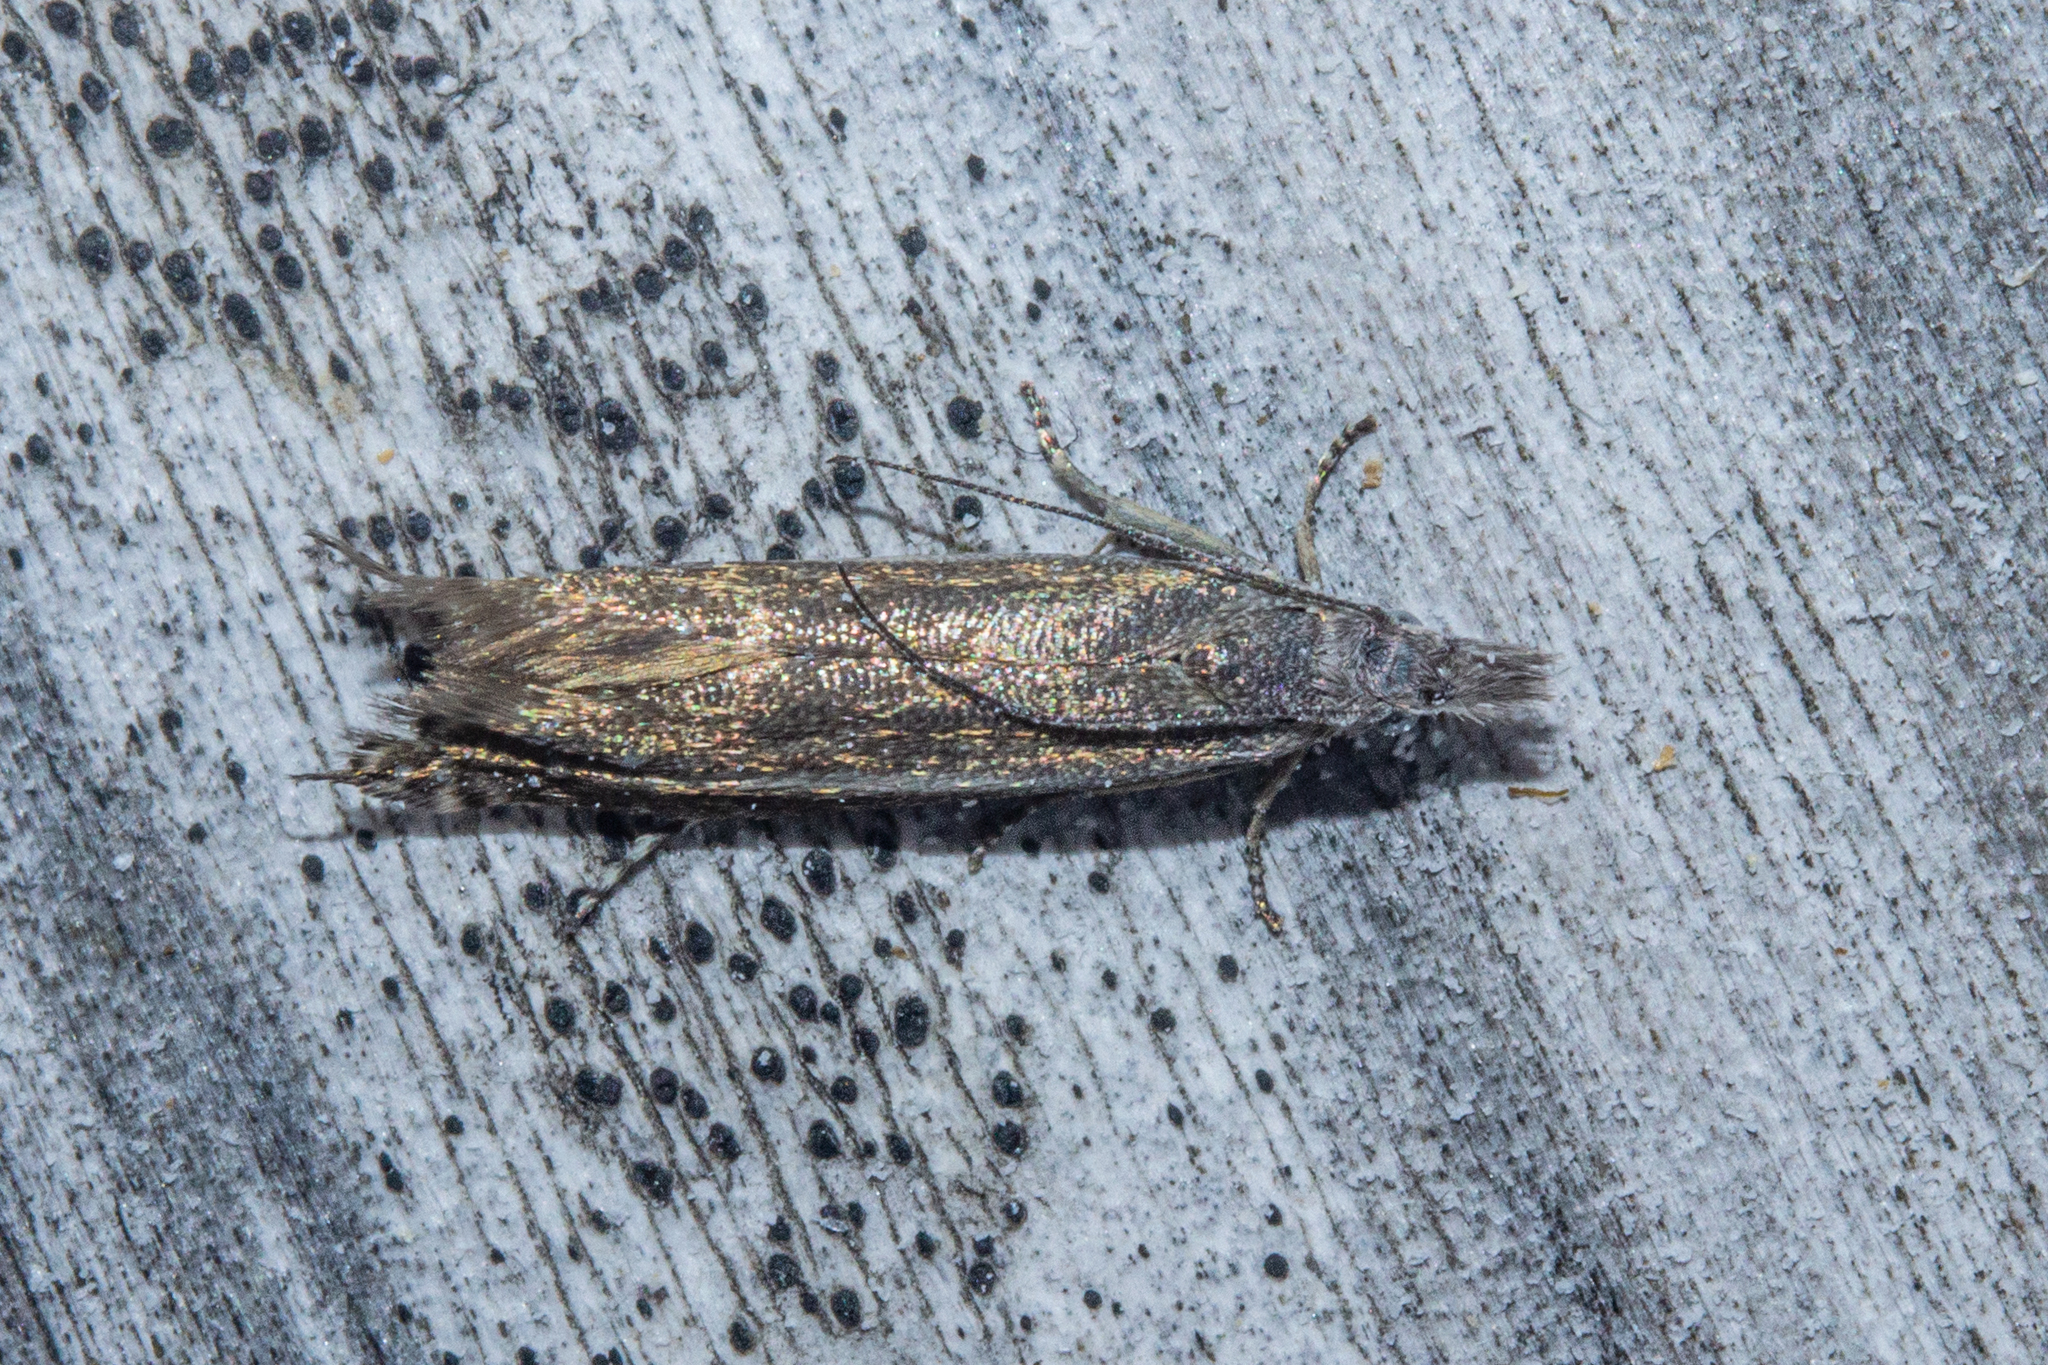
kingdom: Animalia
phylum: Arthropoda
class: Insecta
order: Lepidoptera
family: Glyphipterigidae
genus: Glyphipterix
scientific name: Glyphipterix barbata
